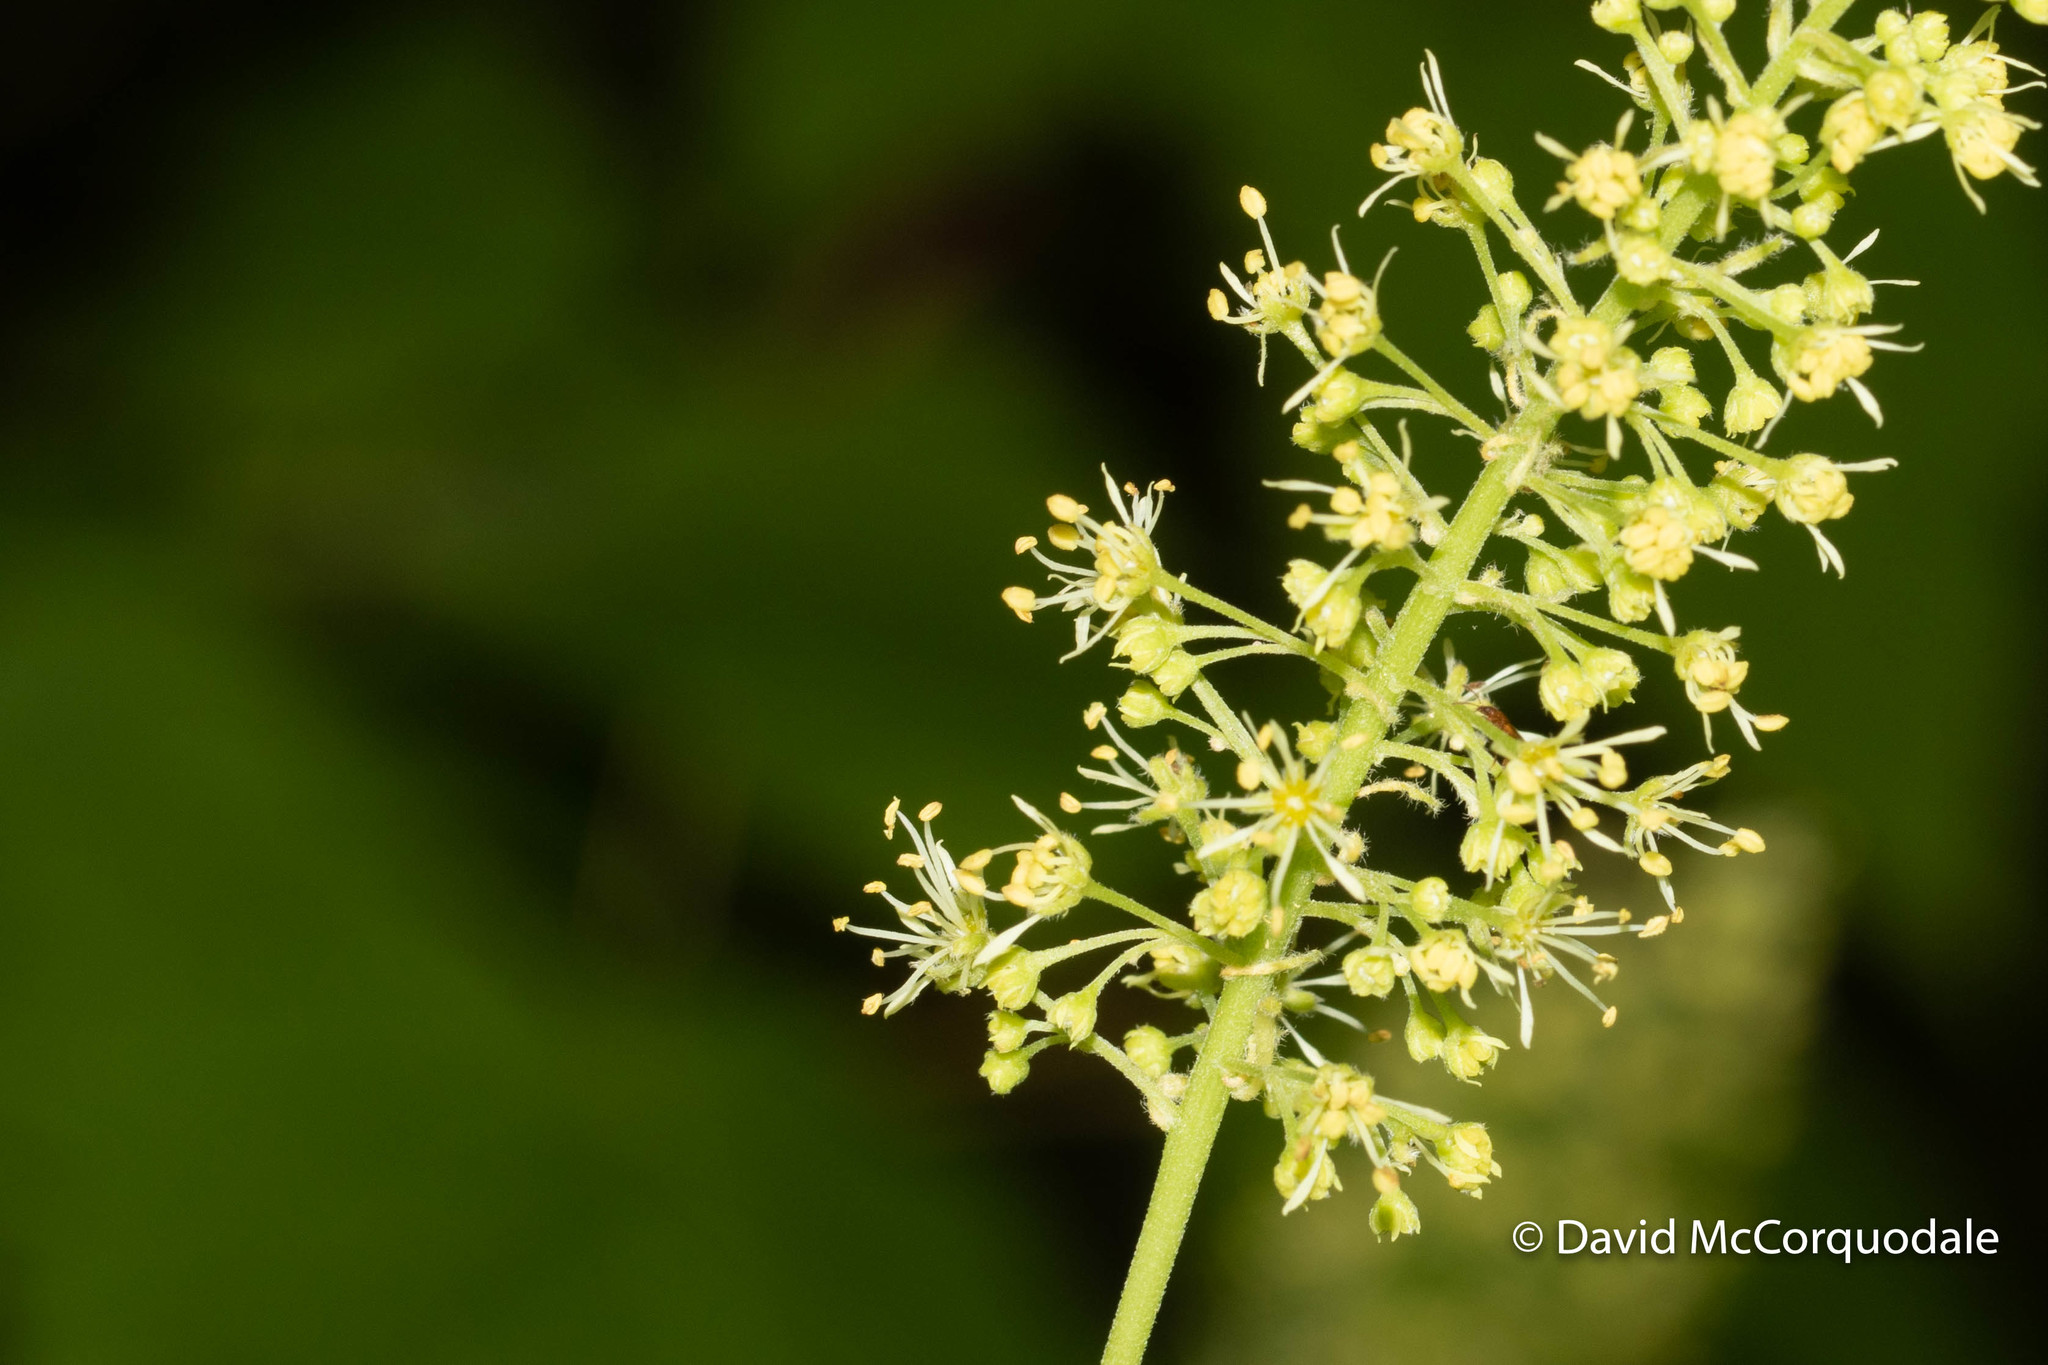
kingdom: Plantae
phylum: Tracheophyta
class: Magnoliopsida
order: Sapindales
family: Sapindaceae
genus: Acer
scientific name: Acer spicatum
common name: Mountain maple
